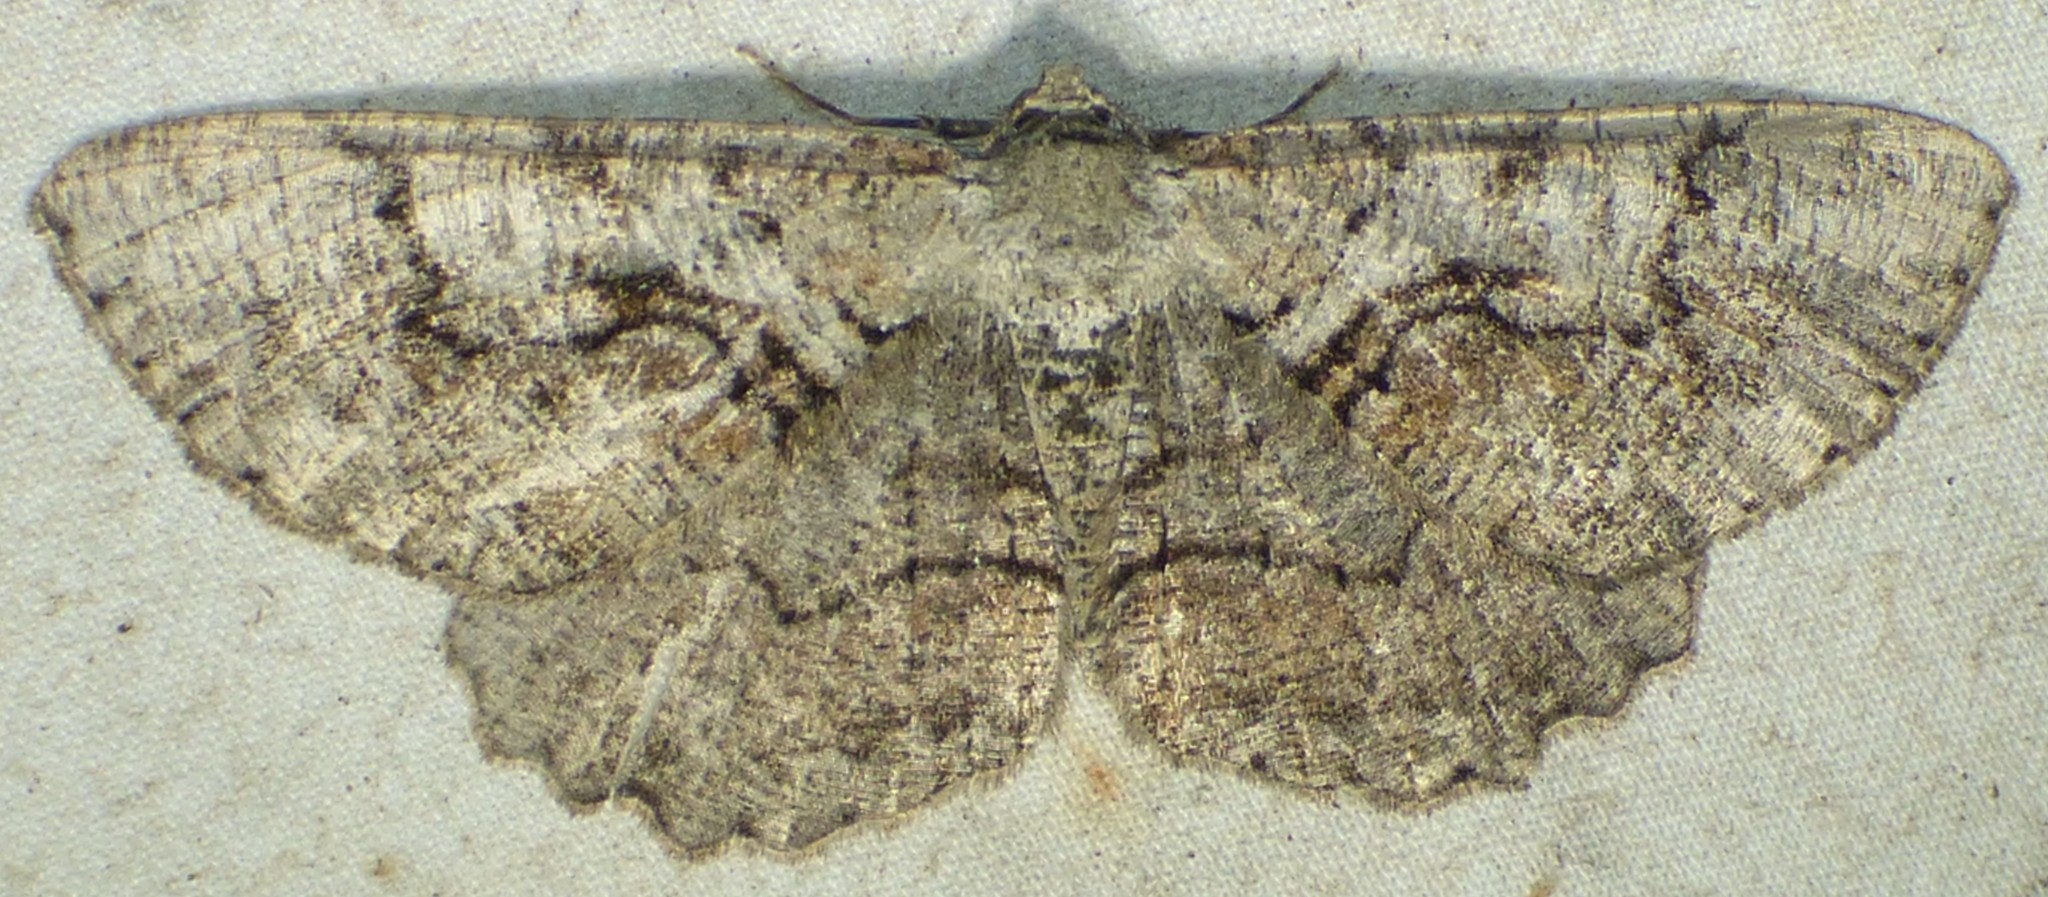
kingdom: Animalia
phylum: Arthropoda
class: Insecta
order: Lepidoptera
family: Geometridae
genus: Cymatophora
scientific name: Cymatophora approximaria
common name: Giant gray moth
